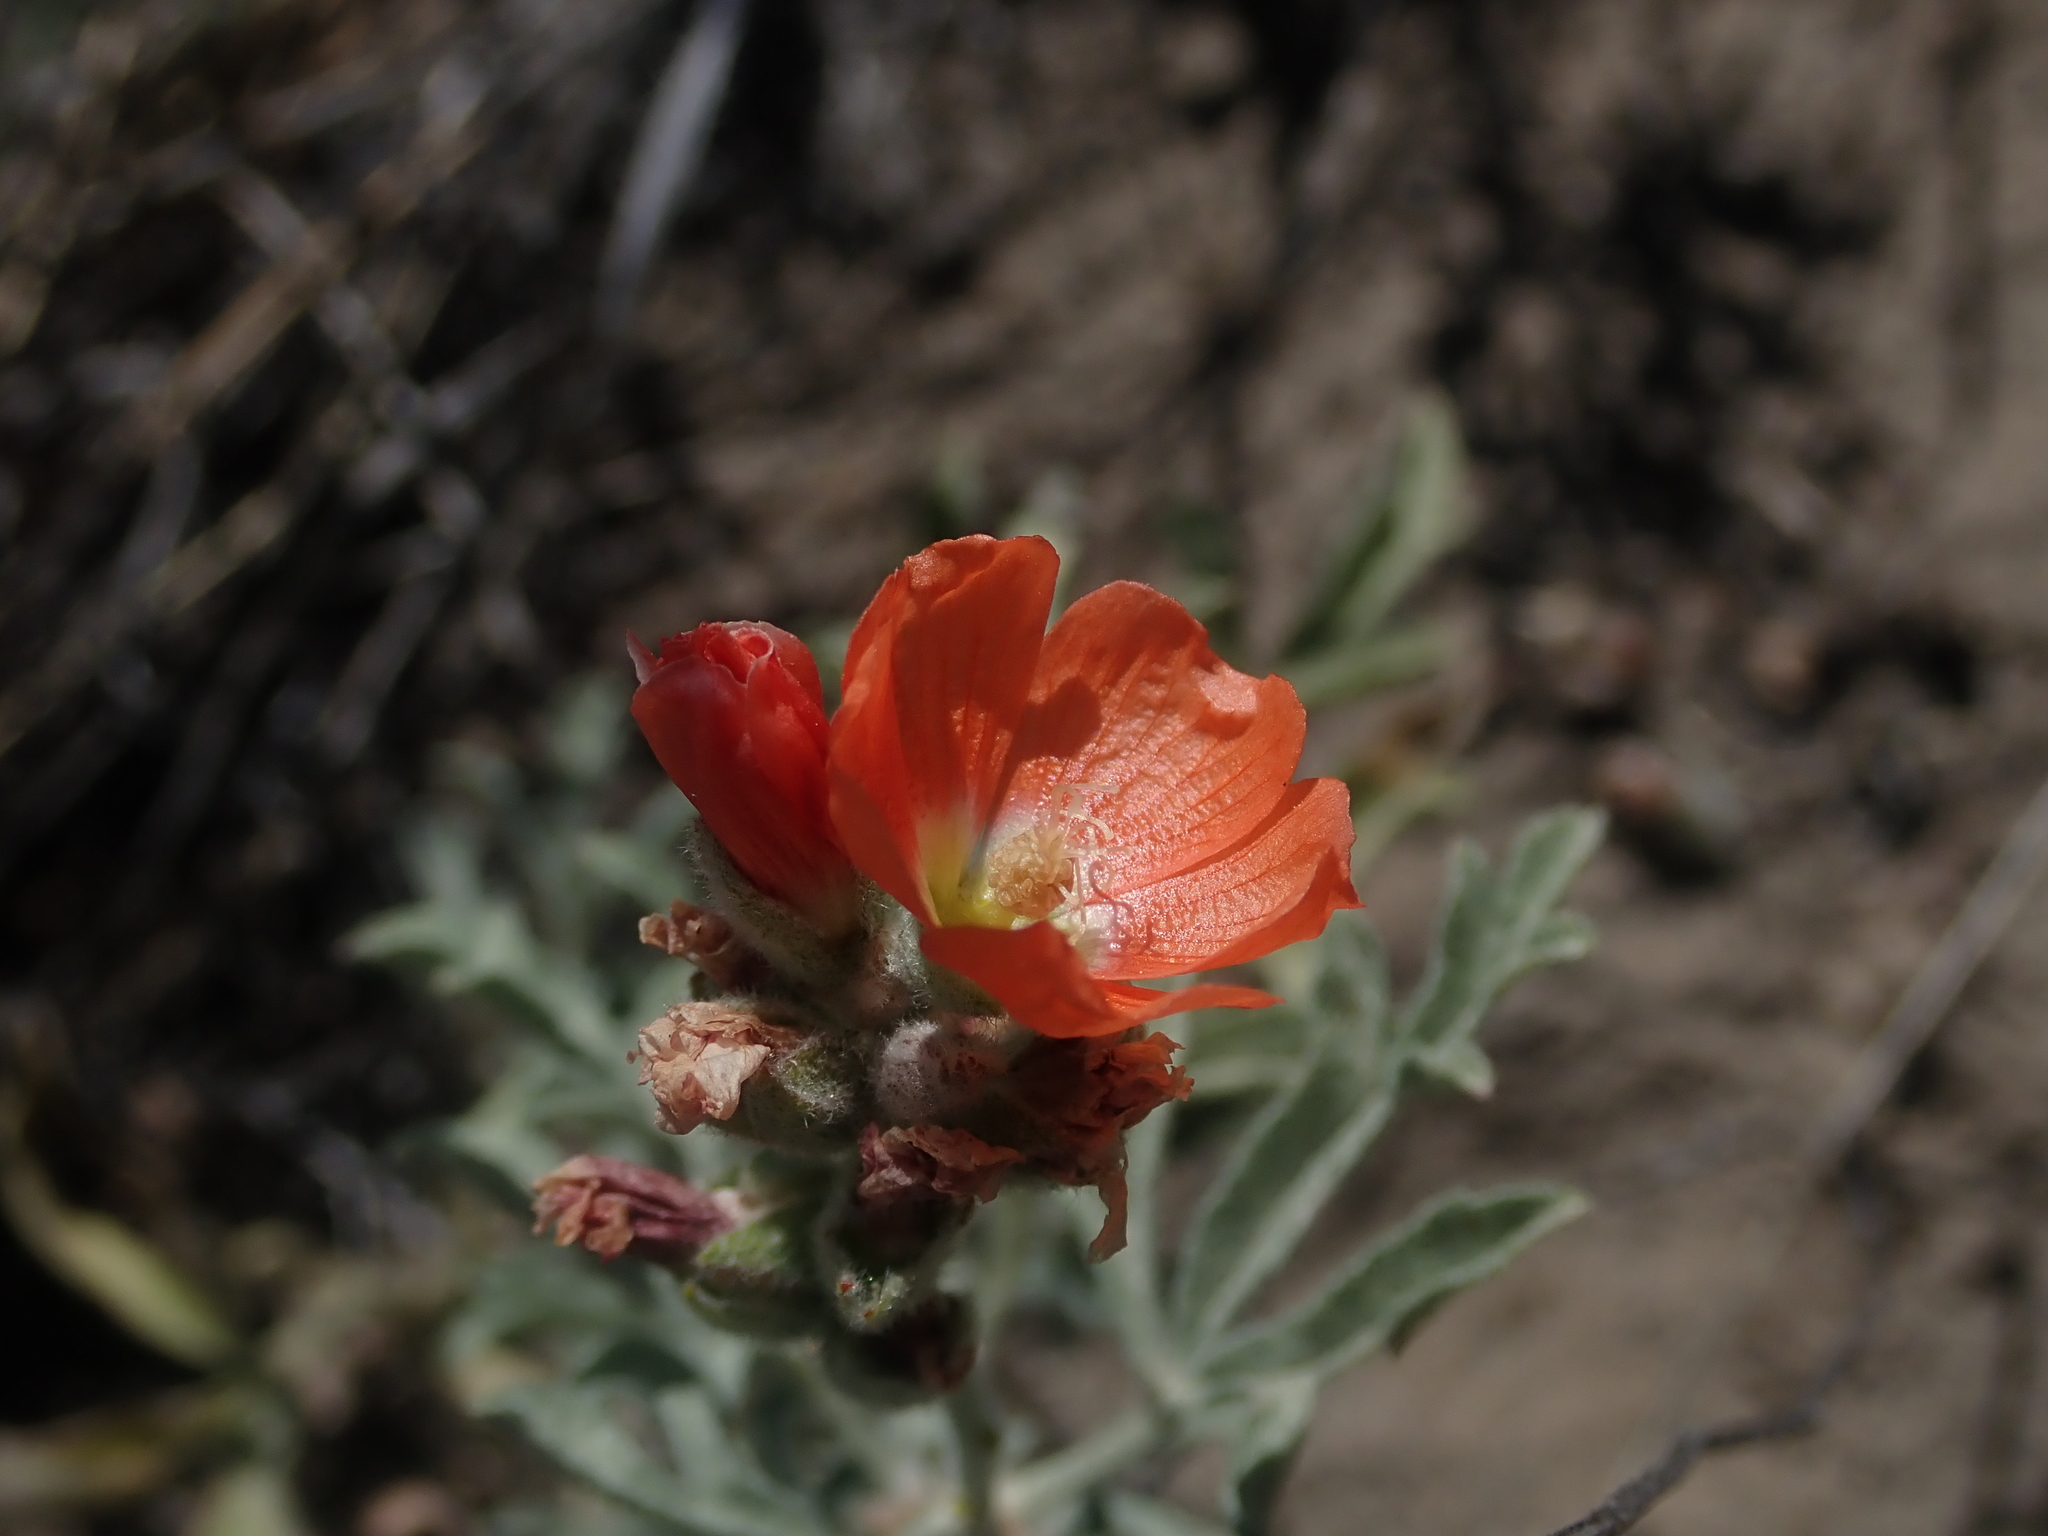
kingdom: Plantae
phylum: Tracheophyta
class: Magnoliopsida
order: Malvales
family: Malvaceae
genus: Sphaeralcea
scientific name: Sphaeralcea coccinea
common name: Moss-rose
